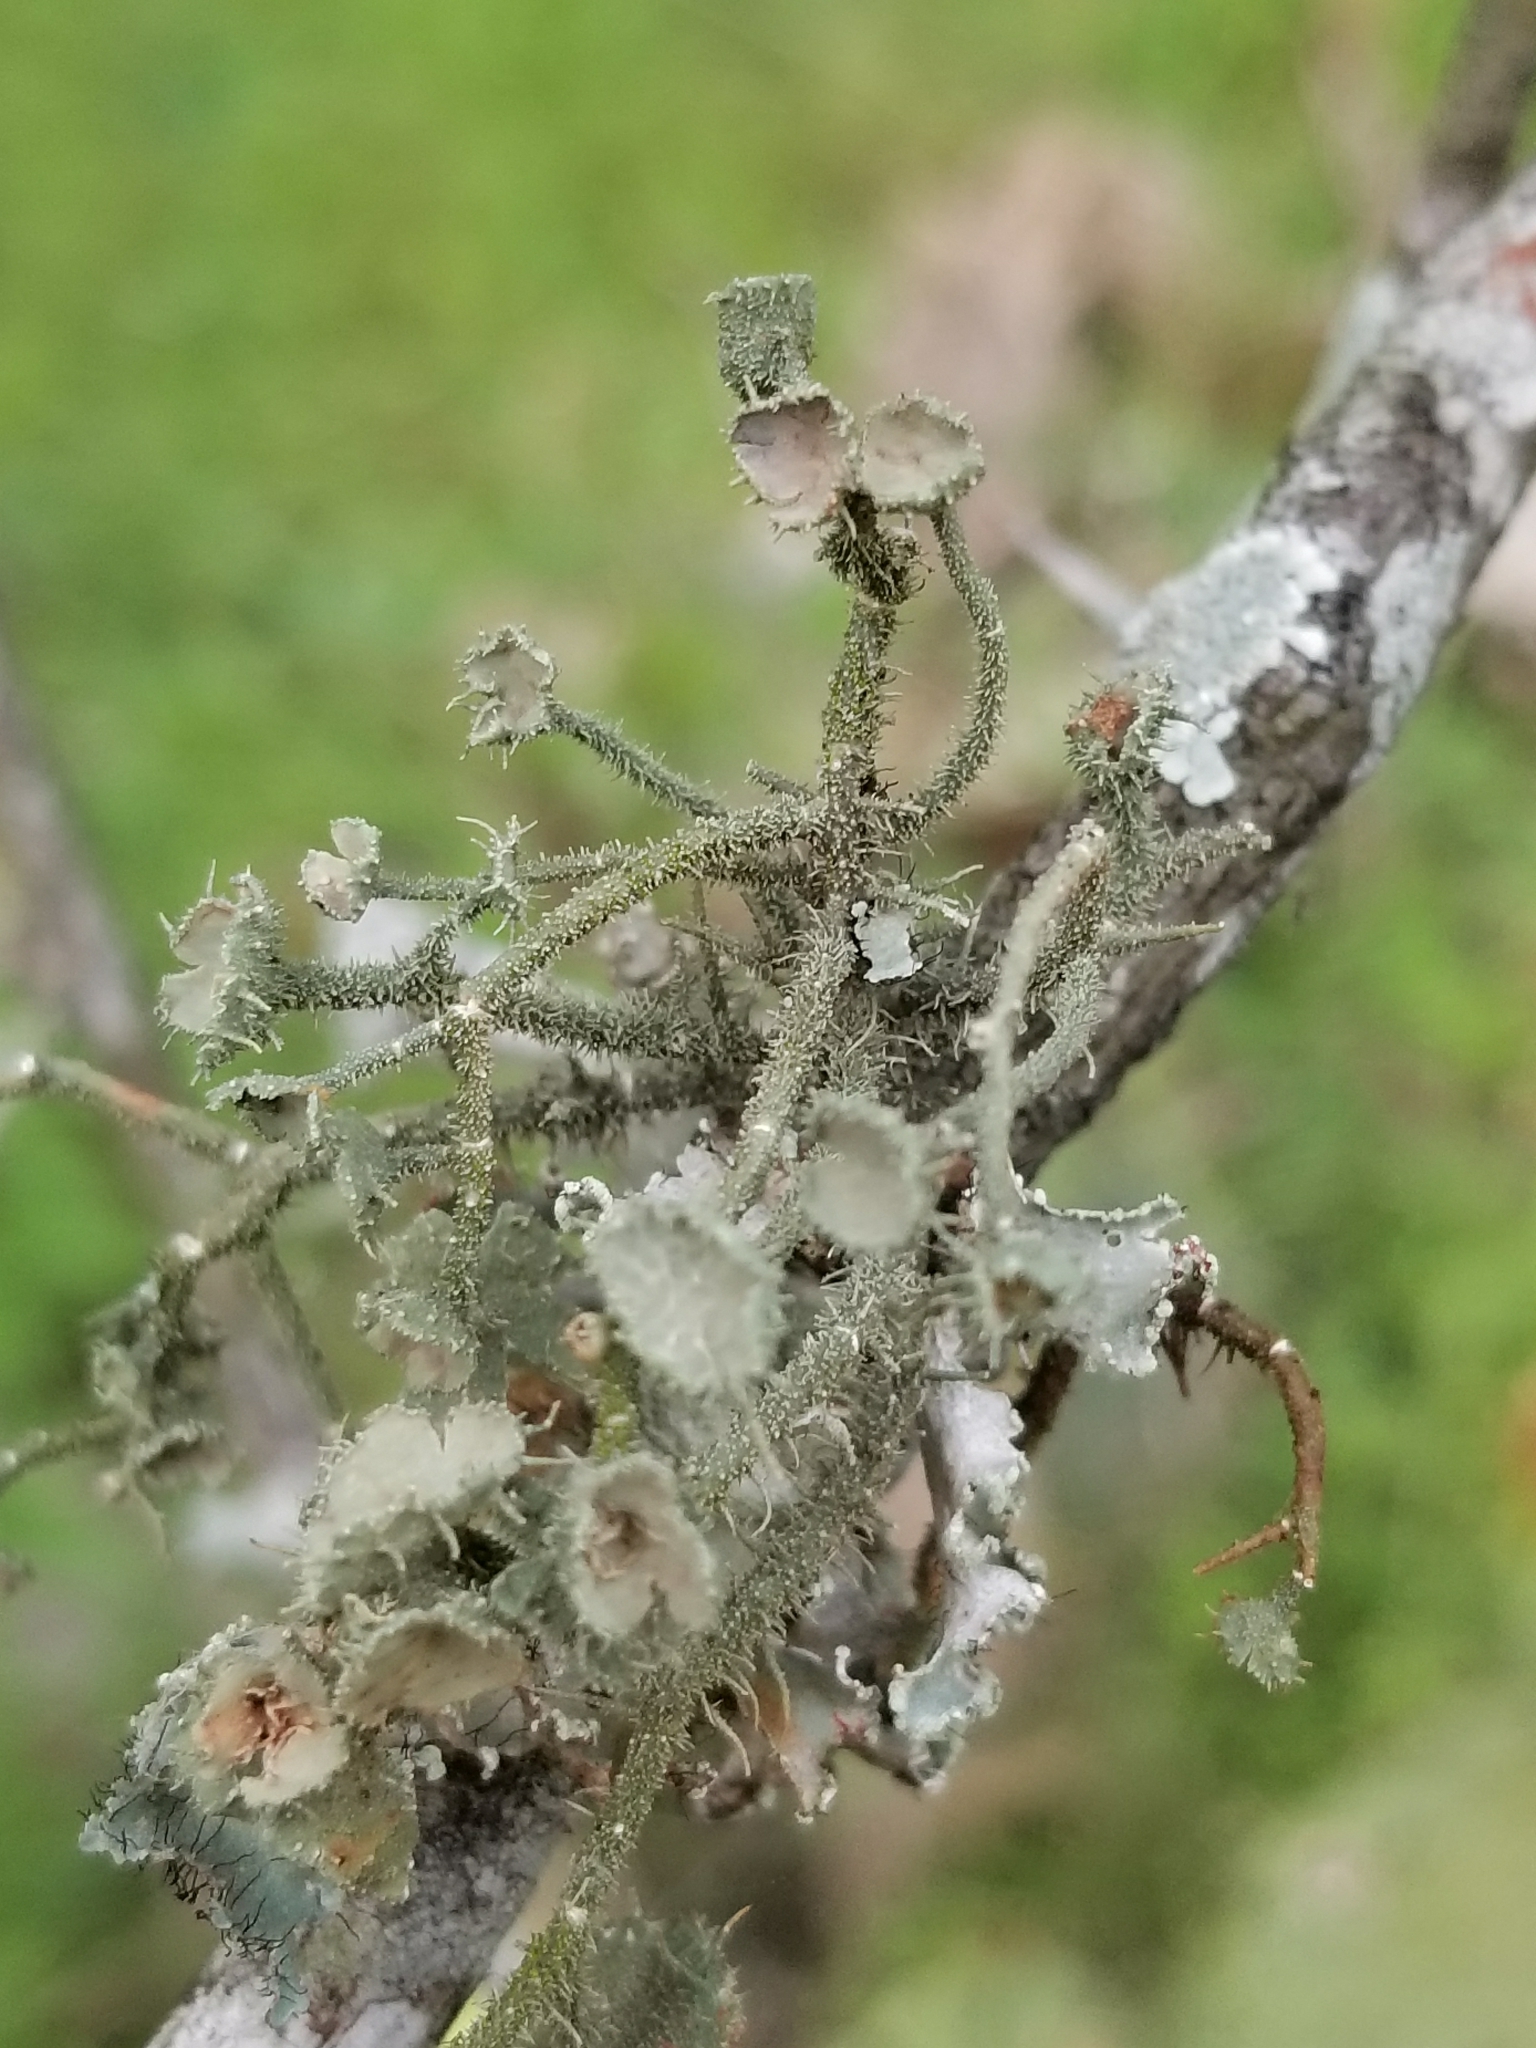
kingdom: Fungi
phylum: Ascomycota
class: Lecanoromycetes
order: Lecanorales
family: Parmeliaceae
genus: Usnea
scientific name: Usnea strigosa
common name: Bushy beard lichen
